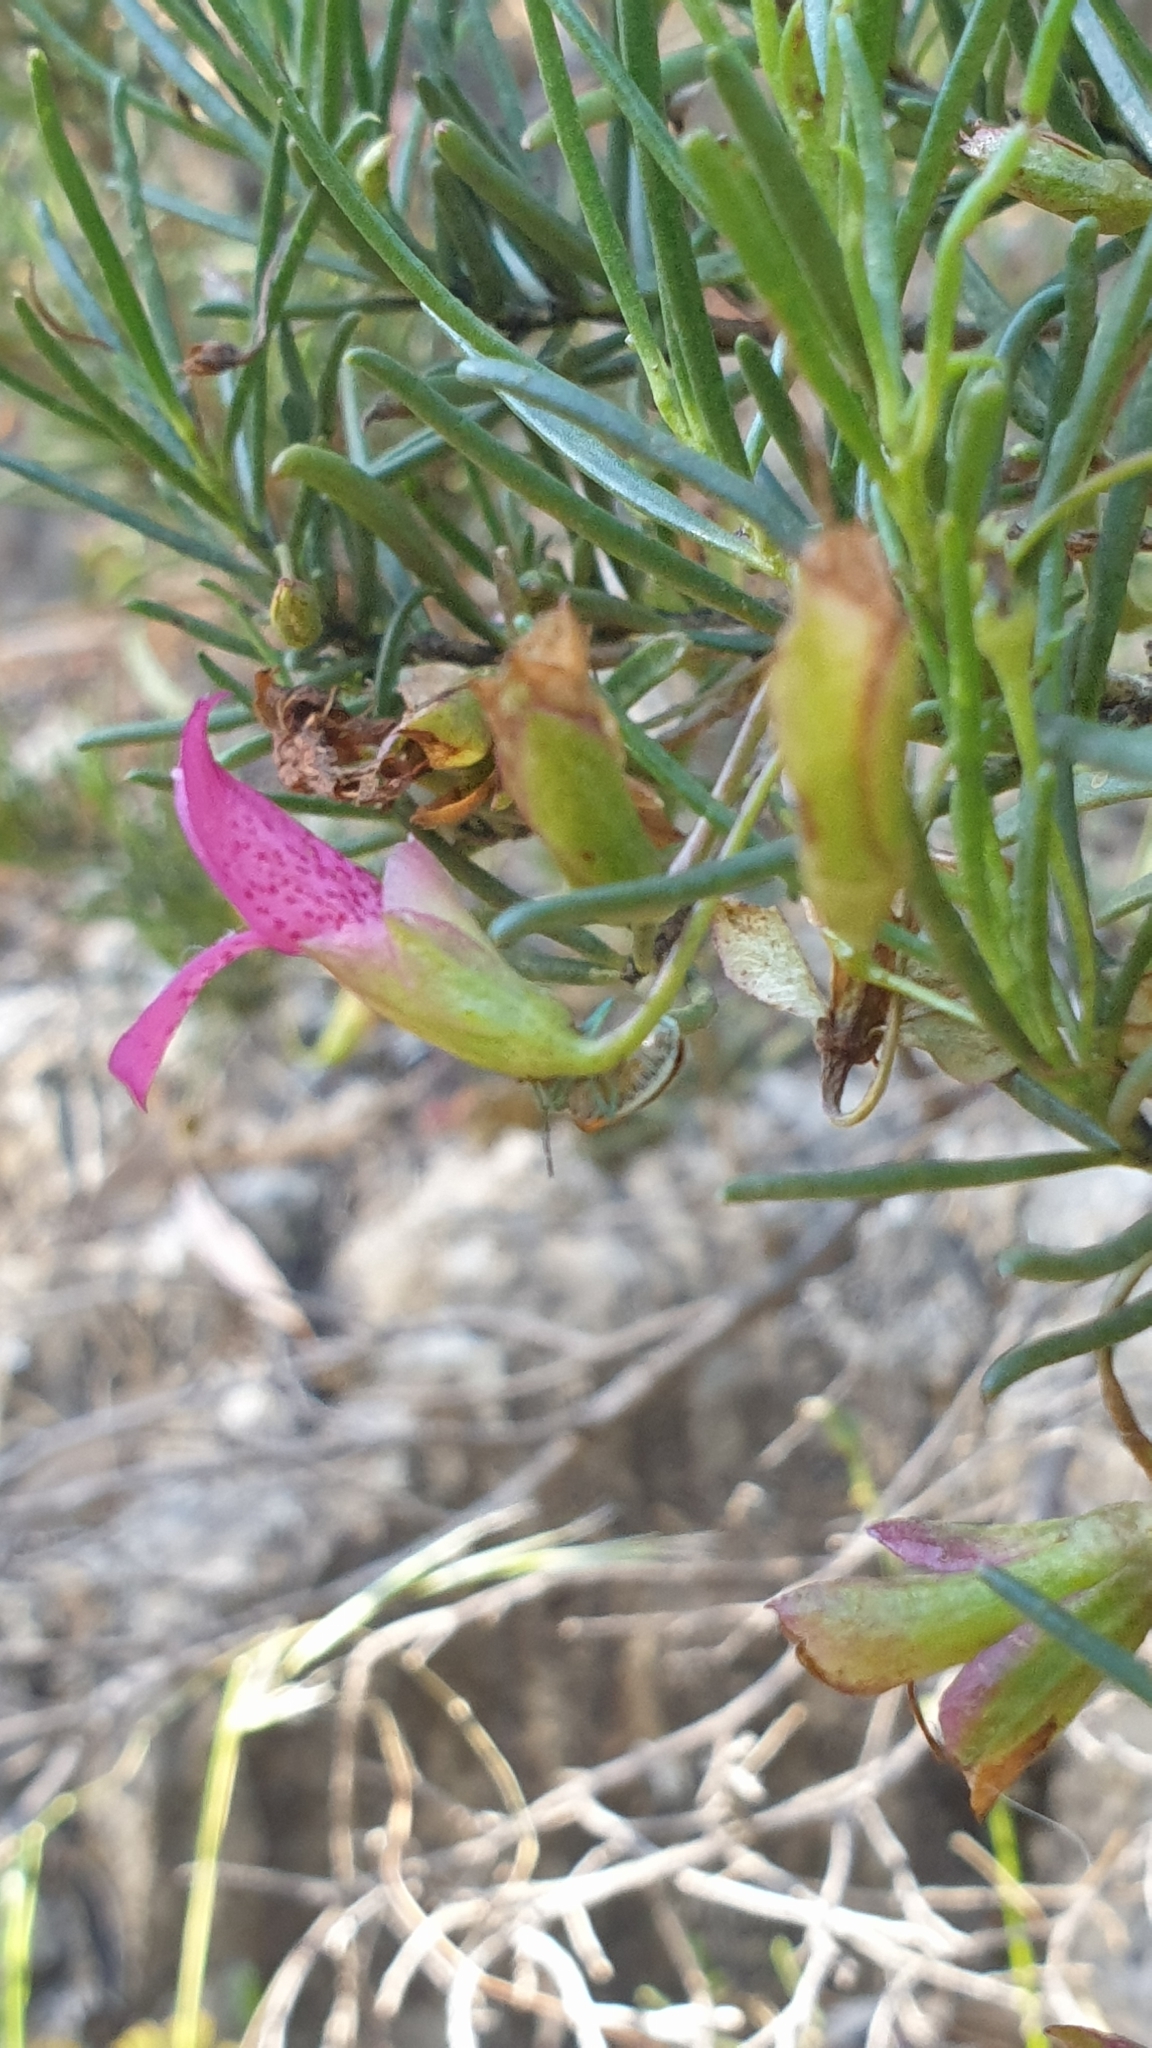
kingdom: Plantae
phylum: Tracheophyta
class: Magnoliopsida
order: Lamiales
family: Scrophulariaceae
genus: Eremophila
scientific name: Eremophila alternifolia
